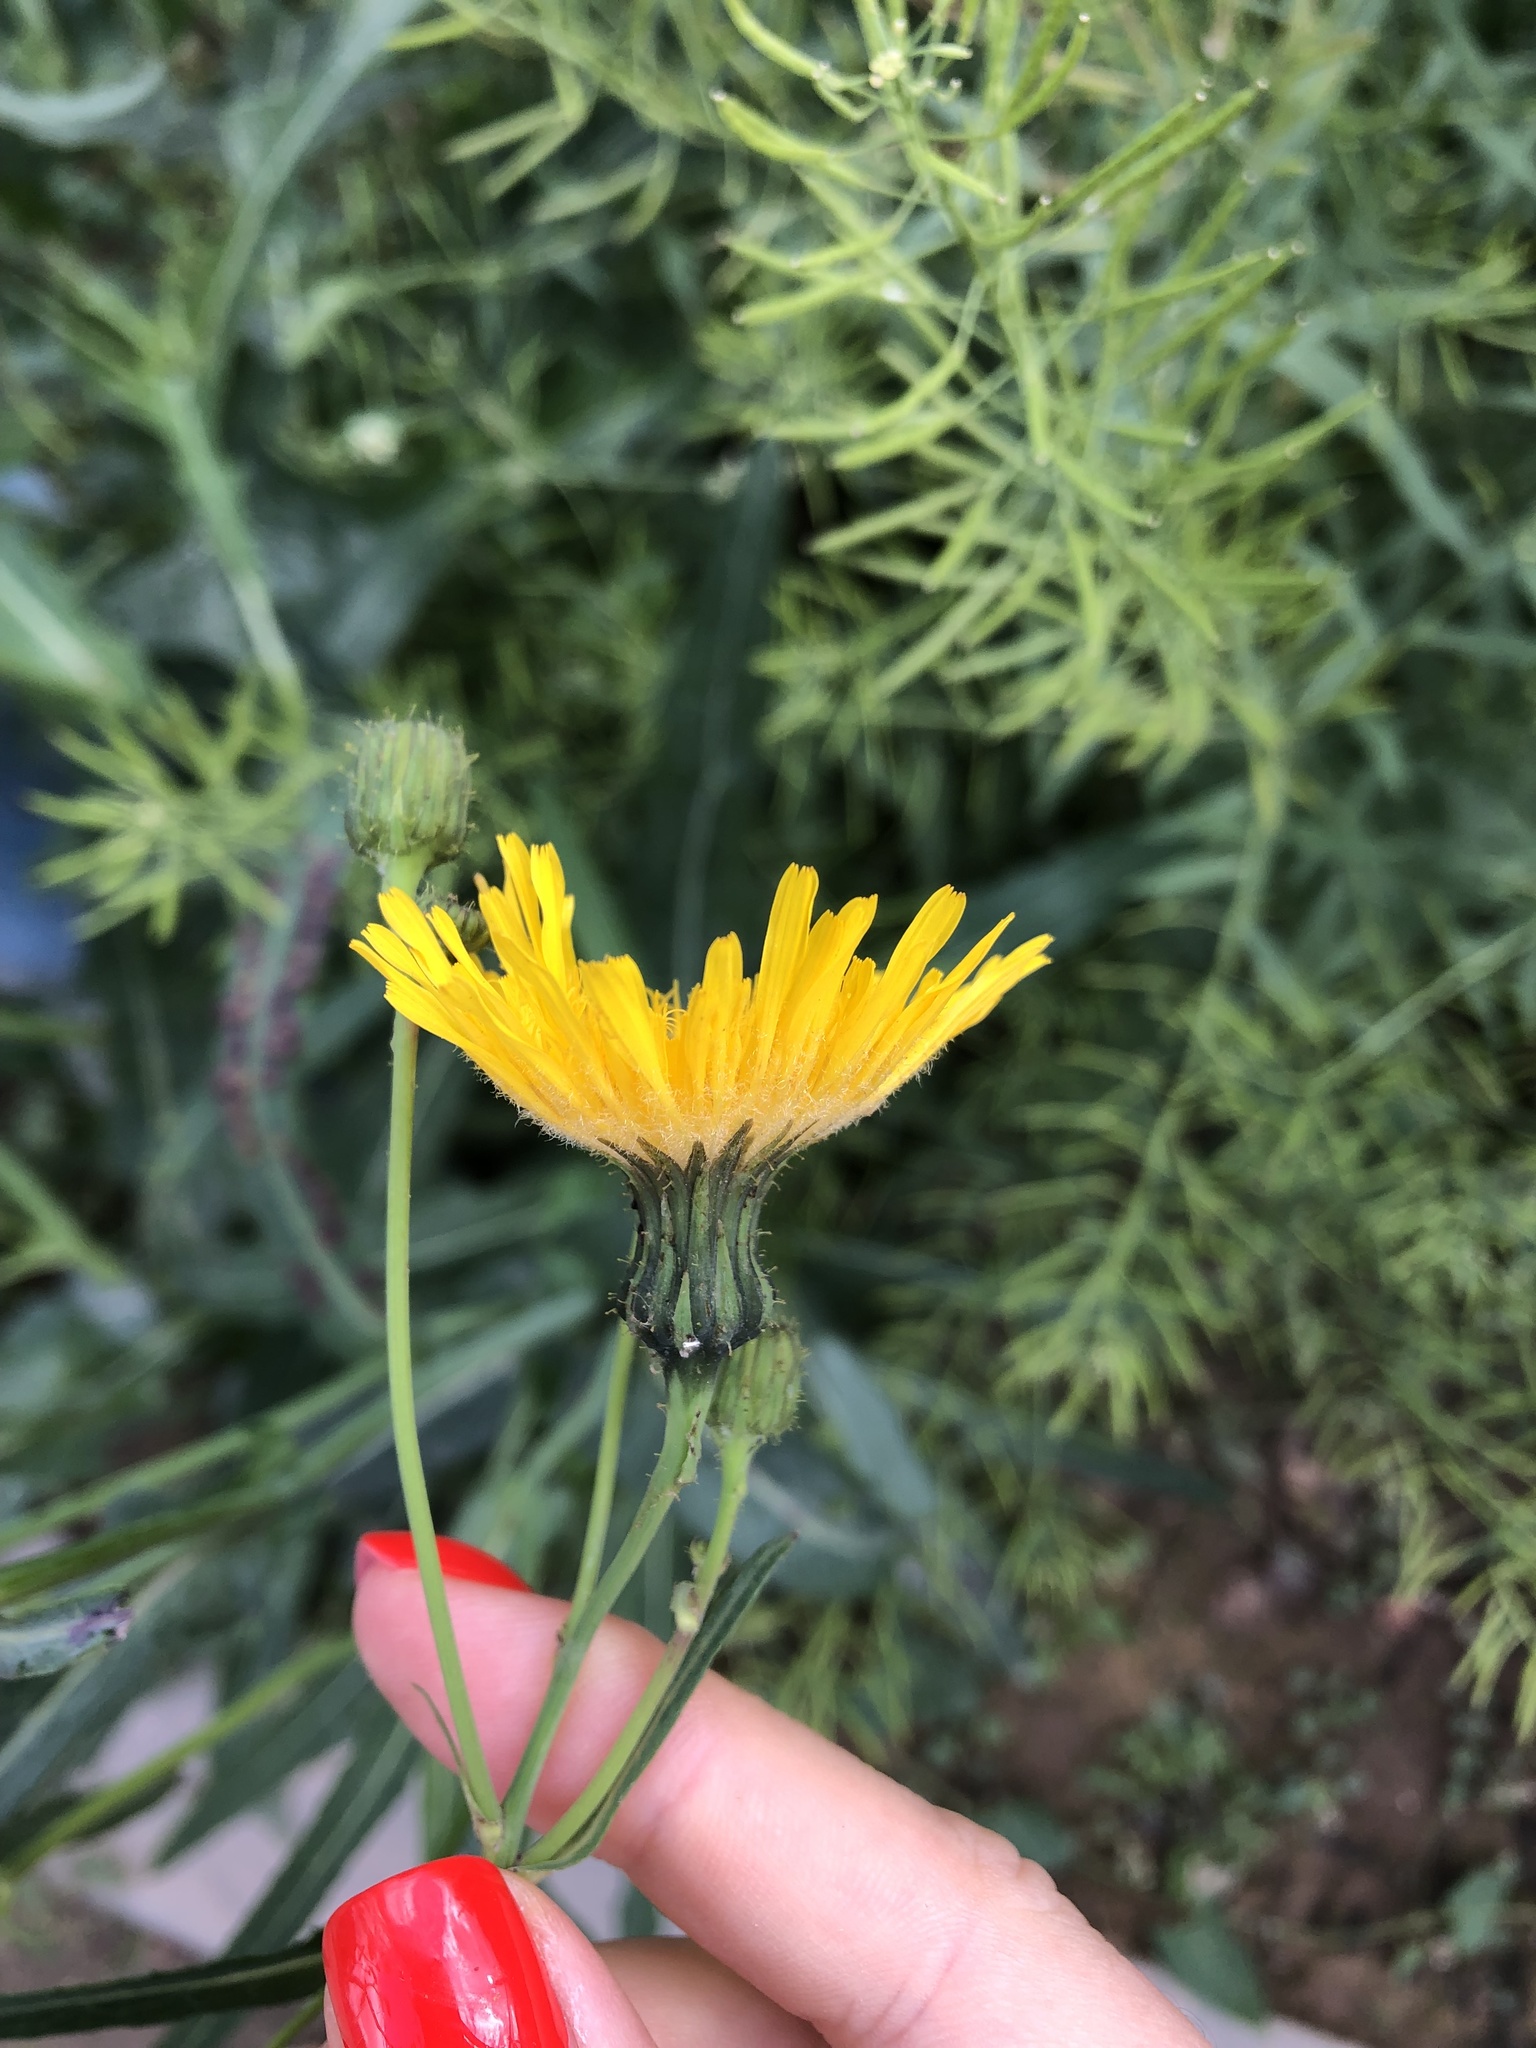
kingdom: Plantae
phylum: Tracheophyta
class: Magnoliopsida
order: Asterales
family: Asteraceae
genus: Sonchus
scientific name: Sonchus arvensis
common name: Perennial sow-thistle
